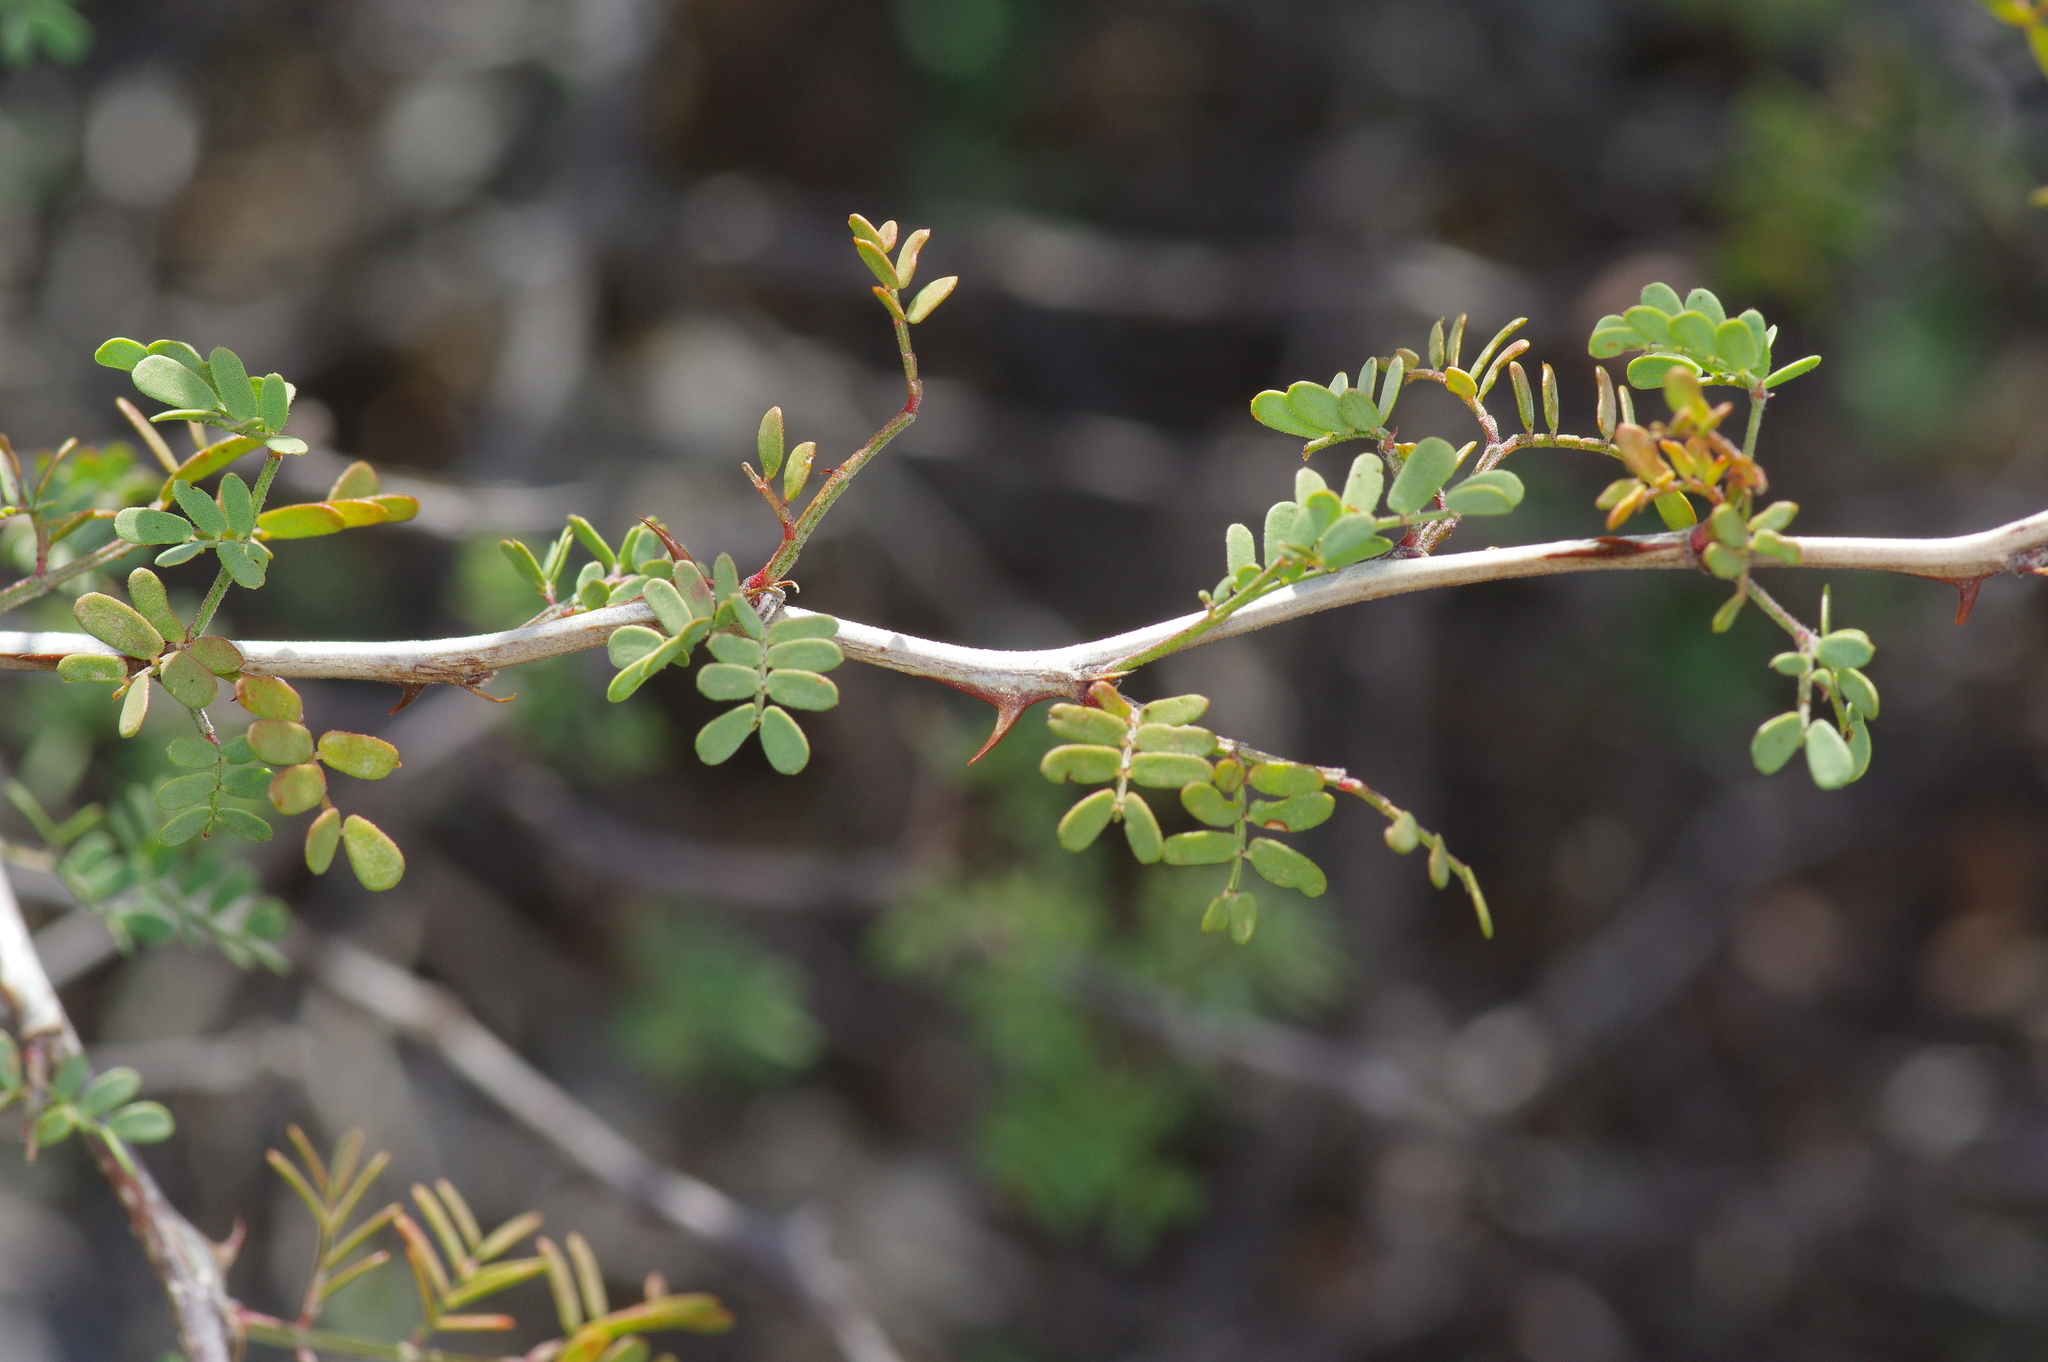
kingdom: Plantae
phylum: Tracheophyta
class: Magnoliopsida
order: Fabales
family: Fabaceae
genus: Mimosa
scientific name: Mimosa texana
